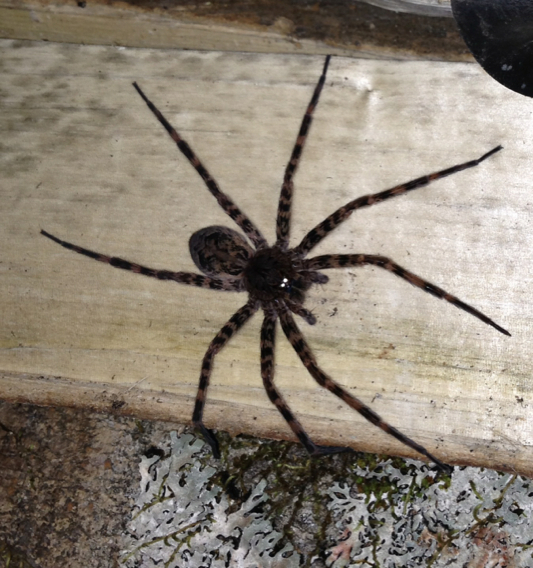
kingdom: Animalia
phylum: Arthropoda
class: Arachnida
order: Araneae
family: Pisauridae
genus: Dolomedes
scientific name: Dolomedes tenebrosus
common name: Dark fishing spider
